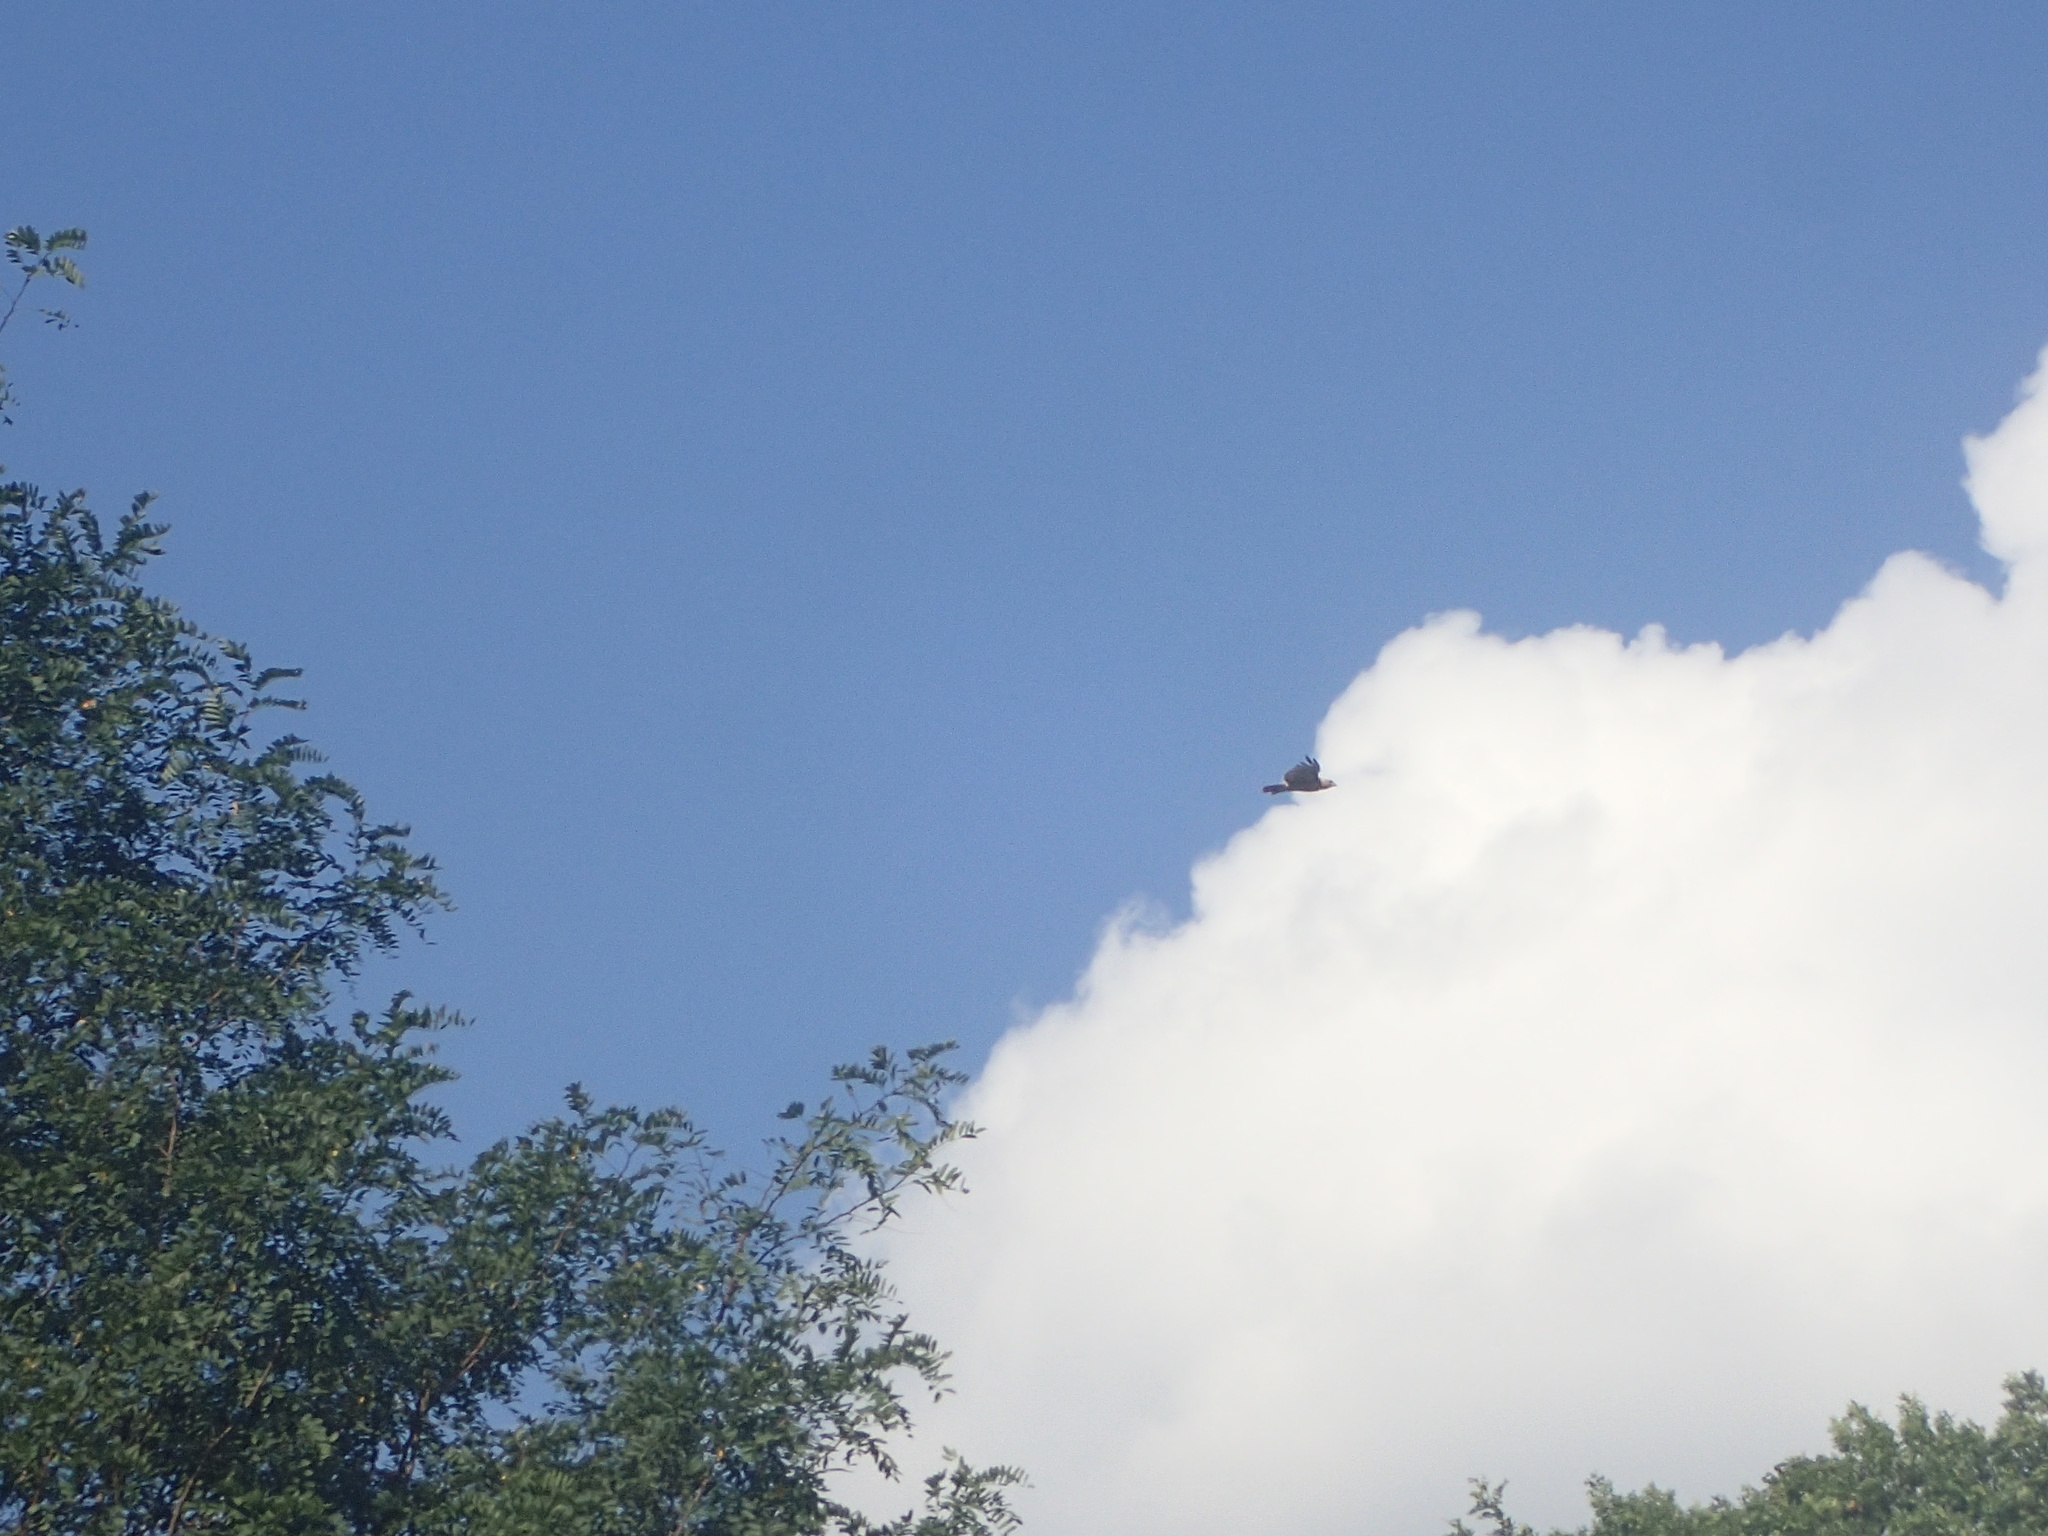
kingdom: Animalia
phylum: Chordata
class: Aves
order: Accipitriformes
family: Accipitridae
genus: Buteo
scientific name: Buteo jamaicensis
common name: Red-tailed hawk
